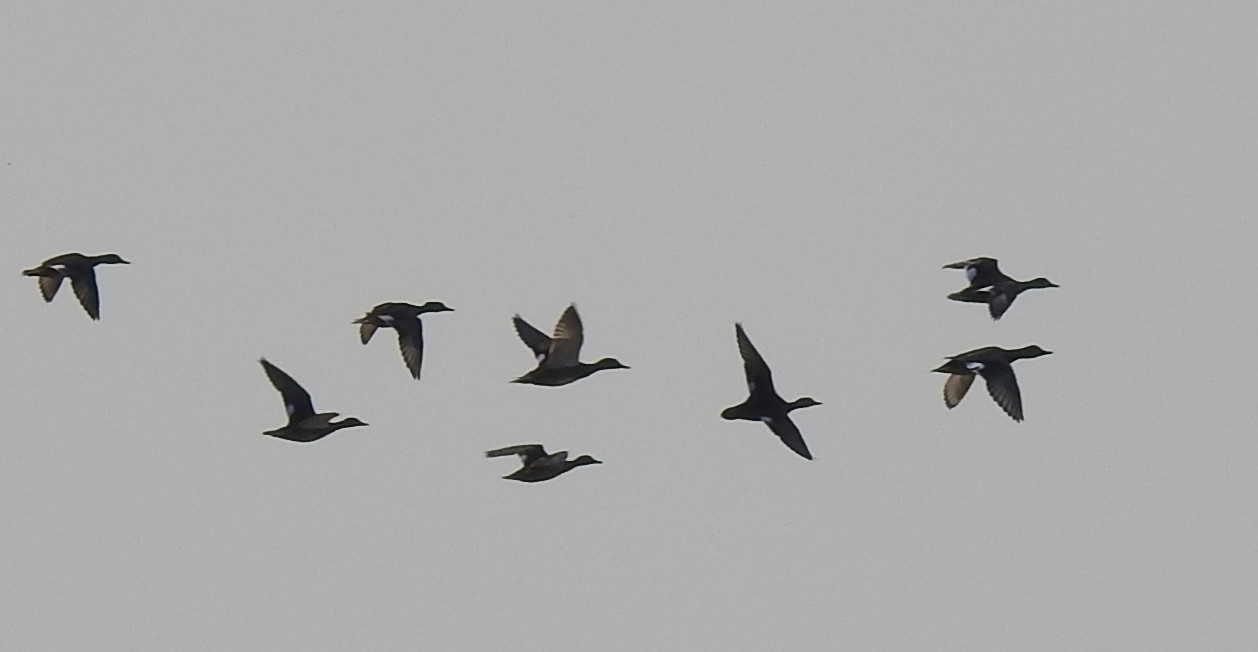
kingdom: Animalia
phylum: Chordata
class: Aves
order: Anseriformes
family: Anatidae
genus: Mareca
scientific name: Mareca strepera
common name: Gadwall
